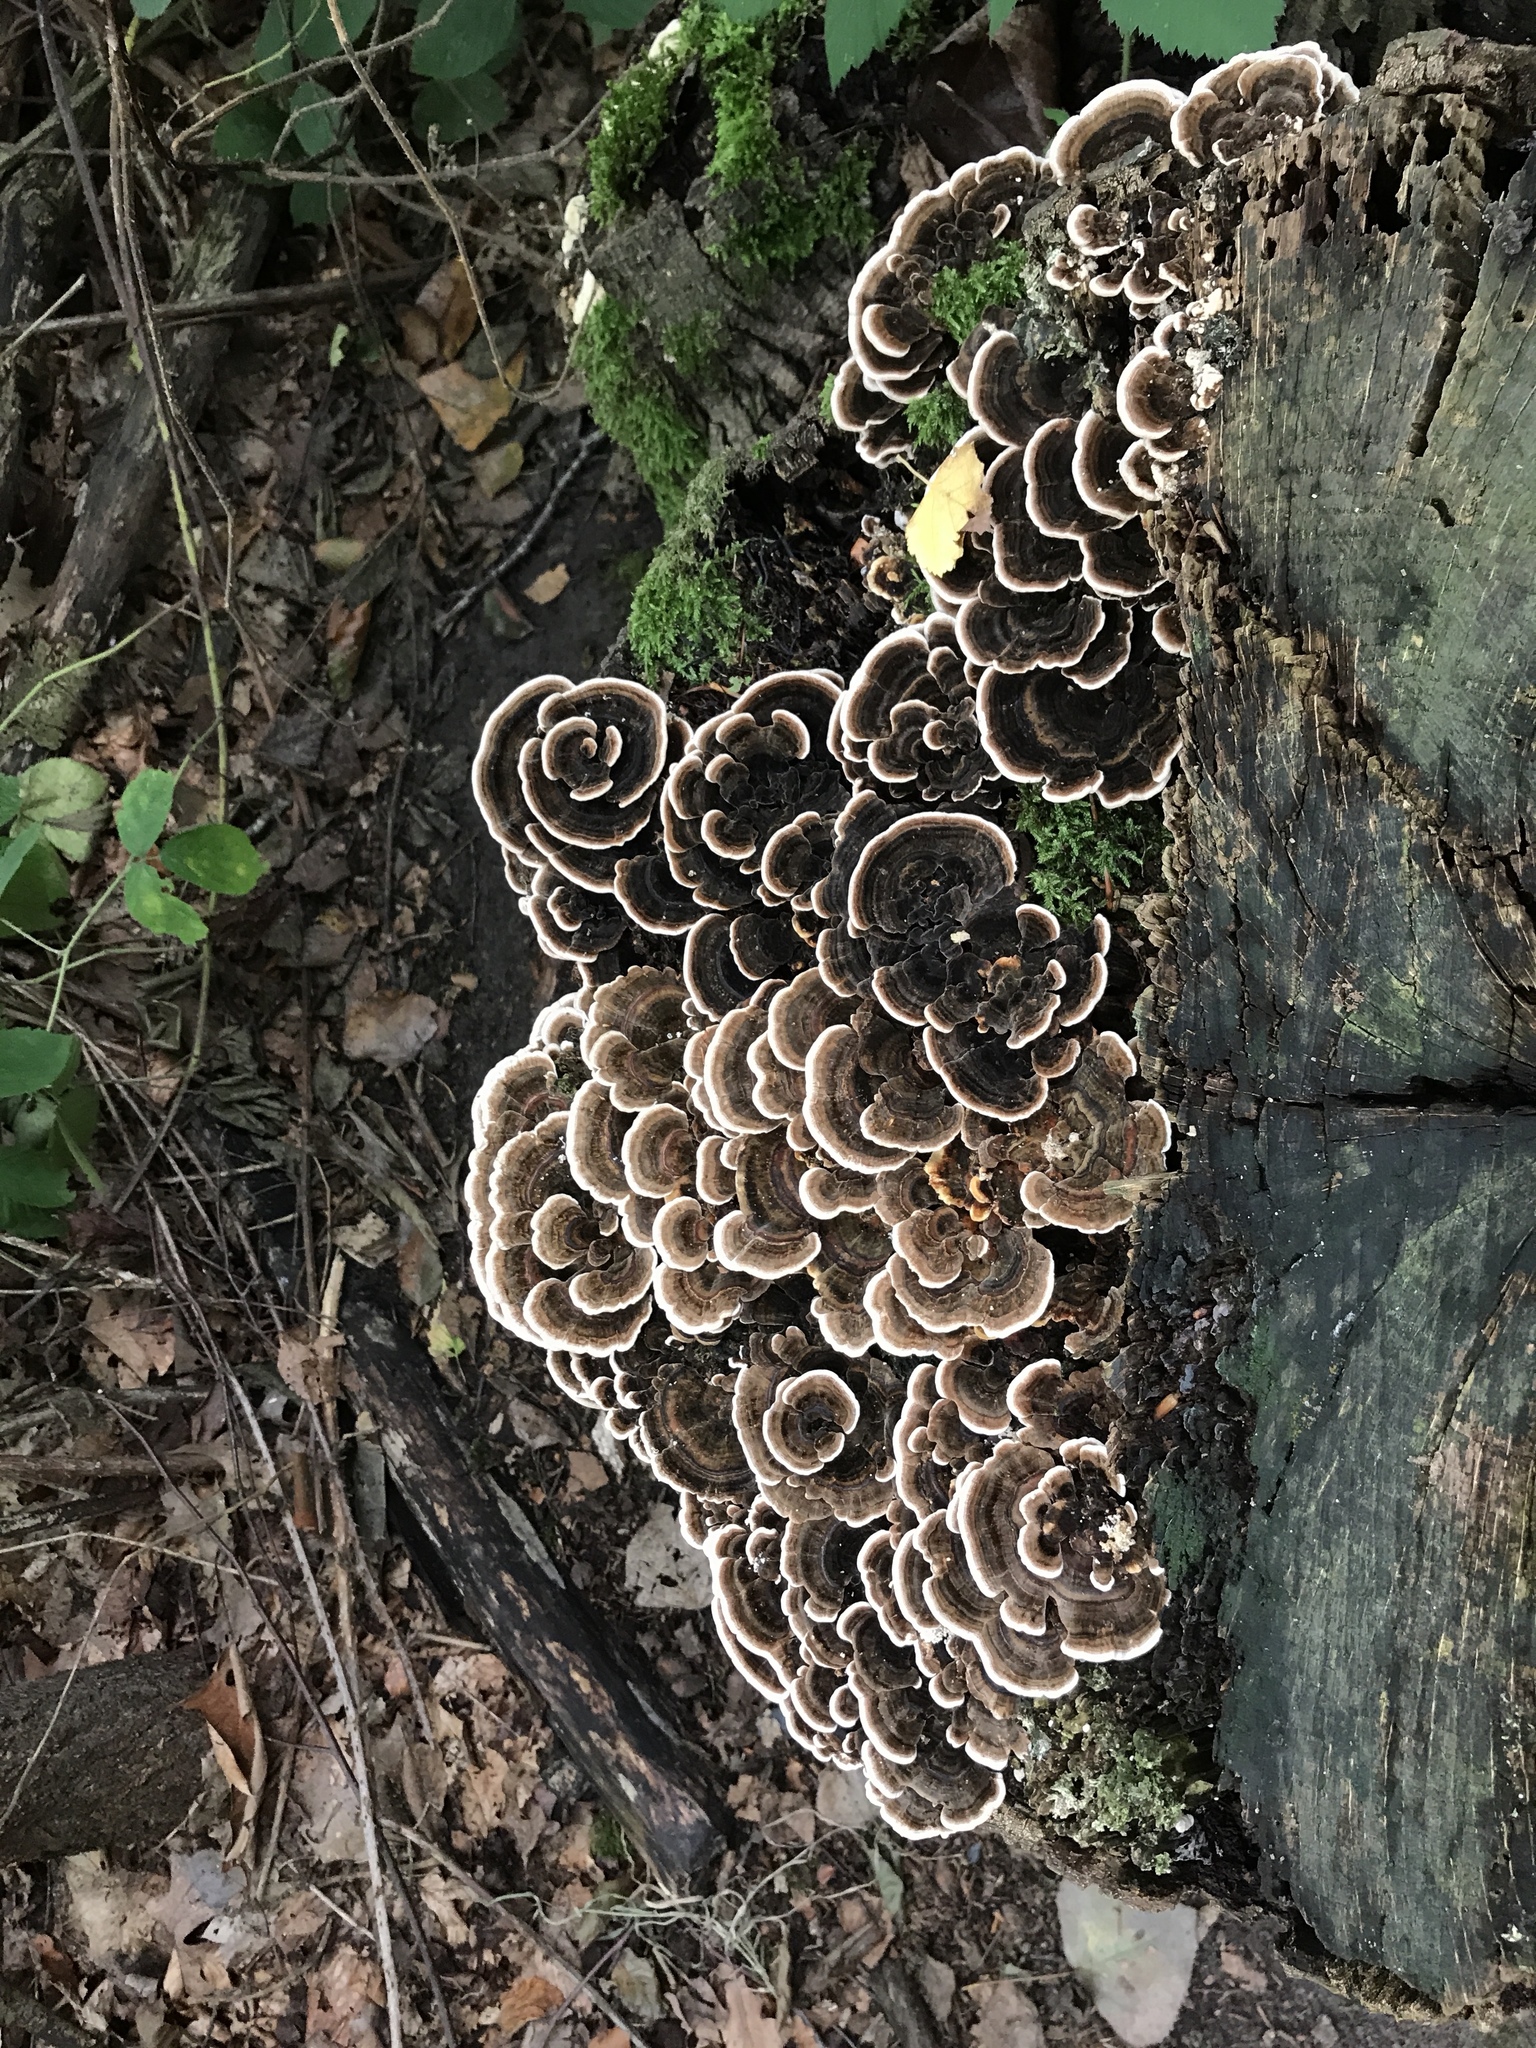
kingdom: Fungi
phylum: Basidiomycota
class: Agaricomycetes
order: Polyporales
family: Polyporaceae
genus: Trametes
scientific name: Trametes versicolor
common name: Turkeytail
